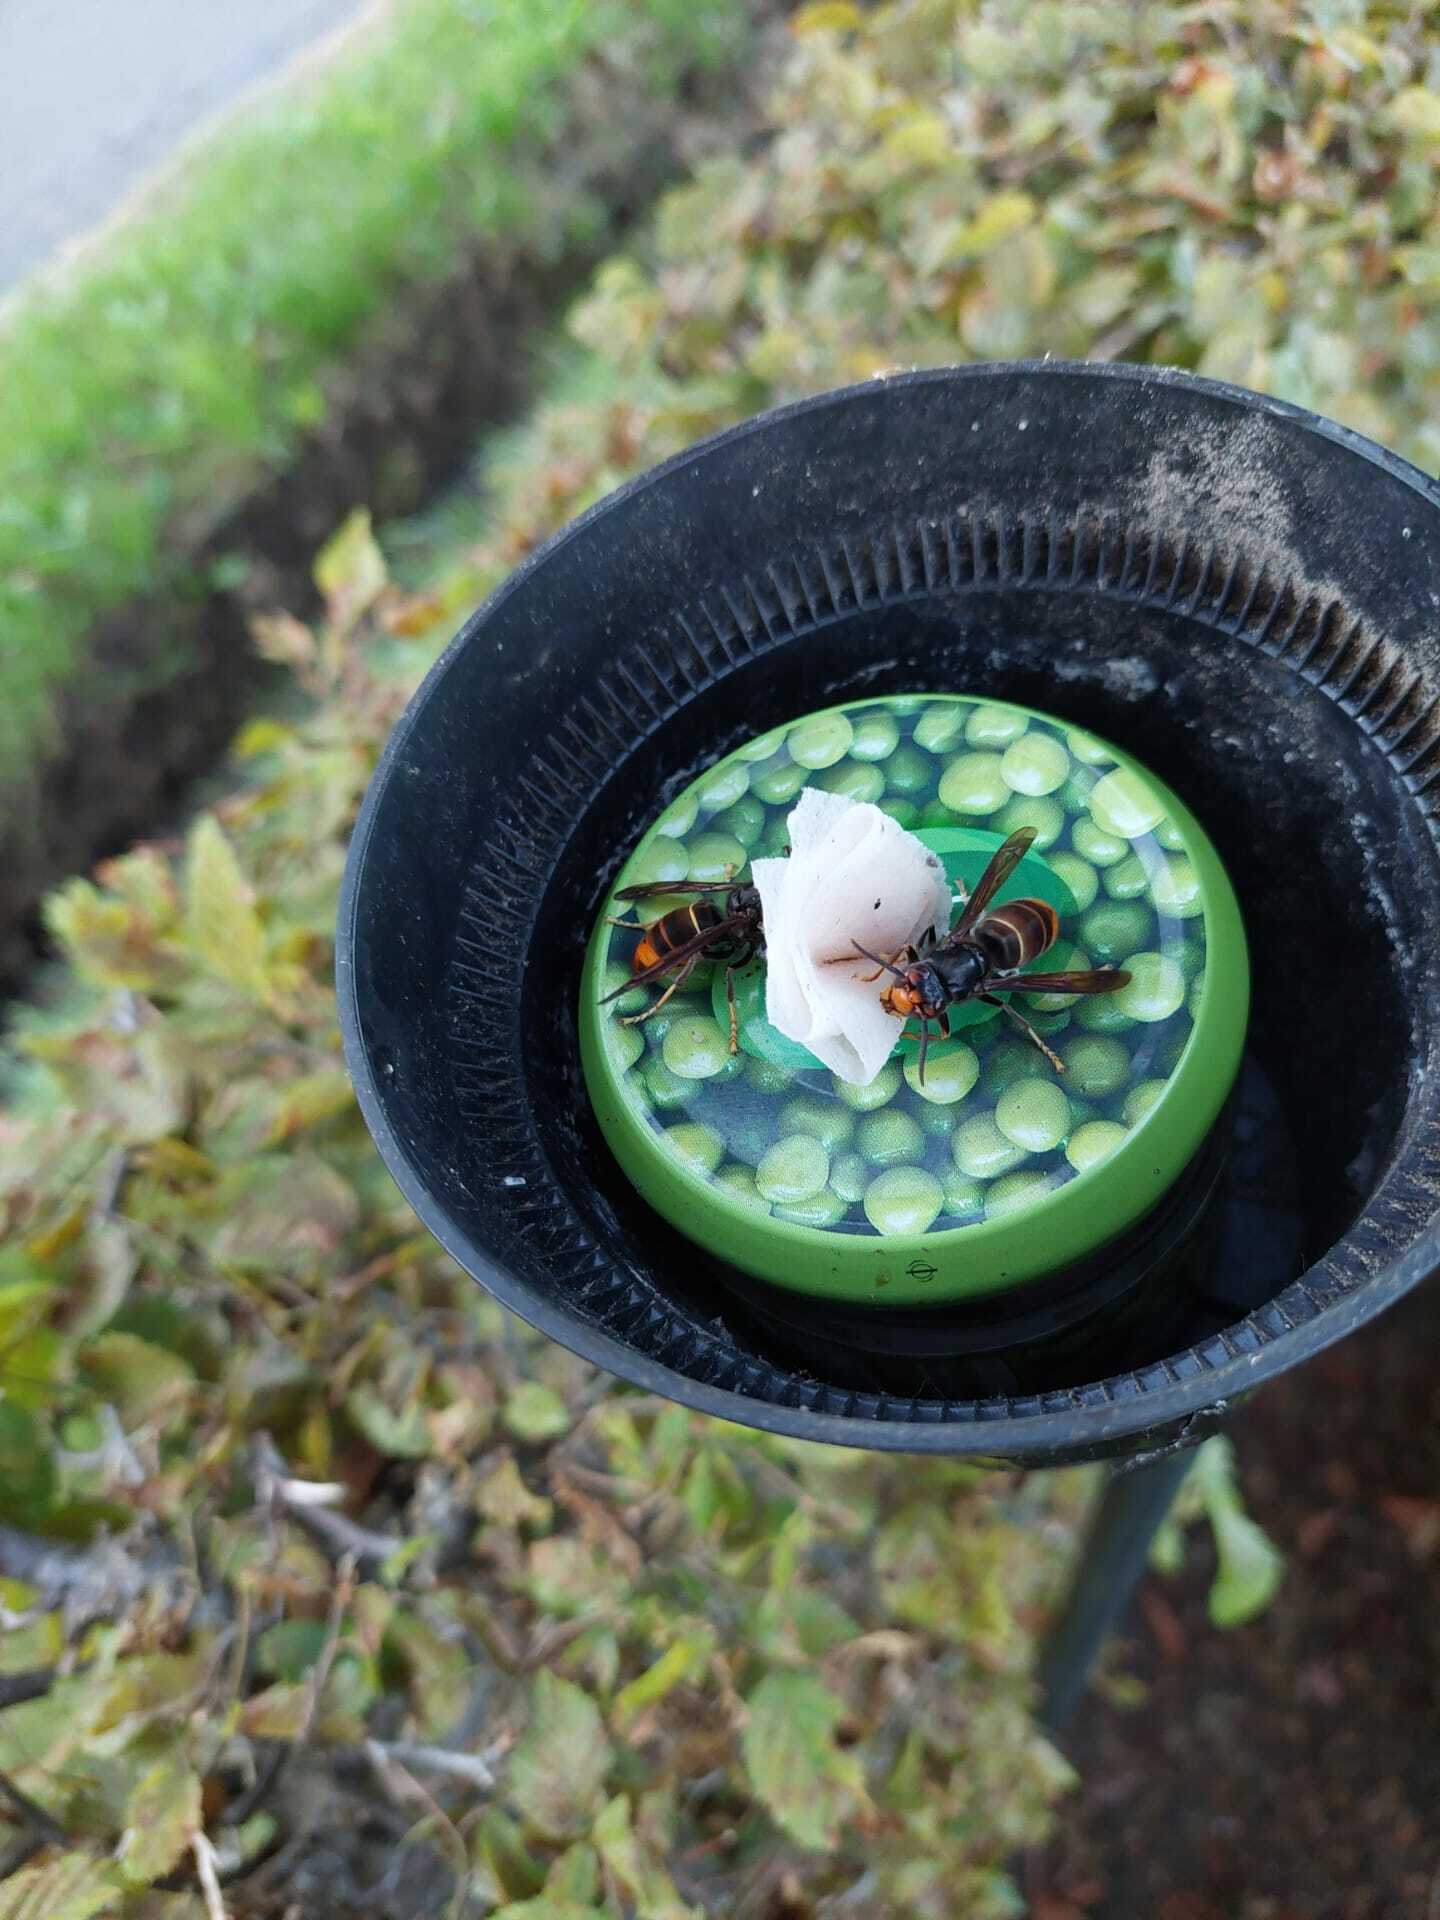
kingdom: Animalia
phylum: Arthropoda
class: Insecta
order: Hymenoptera
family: Vespidae
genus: Vespa
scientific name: Vespa velutina
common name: Asian hornet
